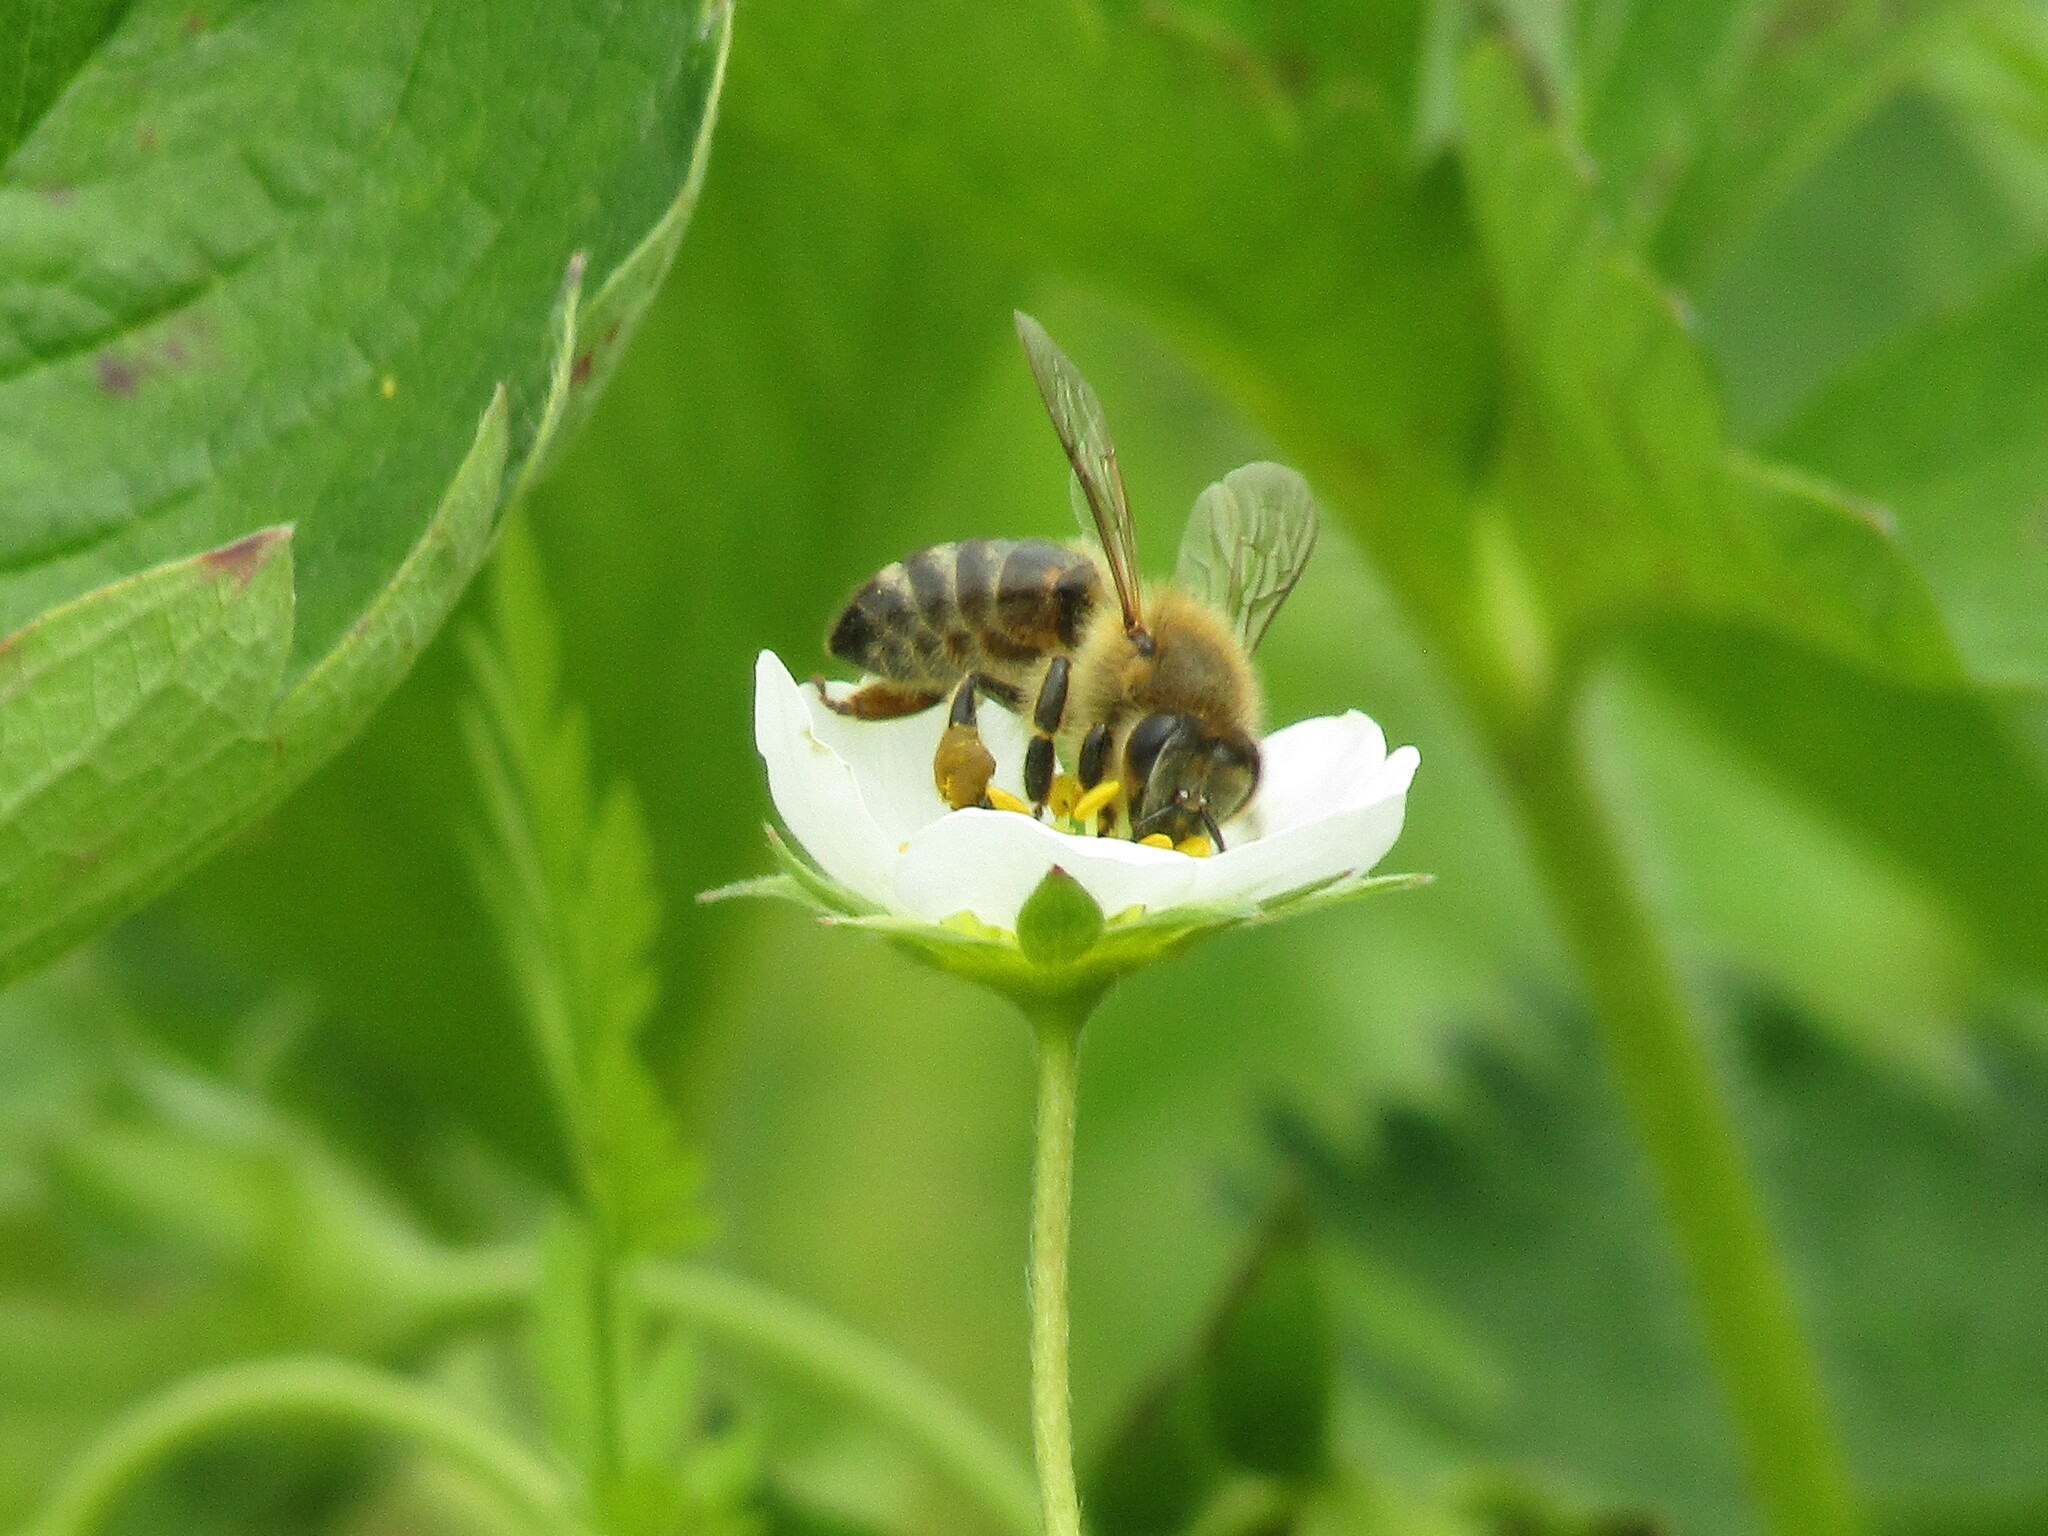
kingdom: Animalia
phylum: Arthropoda
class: Insecta
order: Hymenoptera
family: Apidae
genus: Apis
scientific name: Apis mellifera
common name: Honey bee
